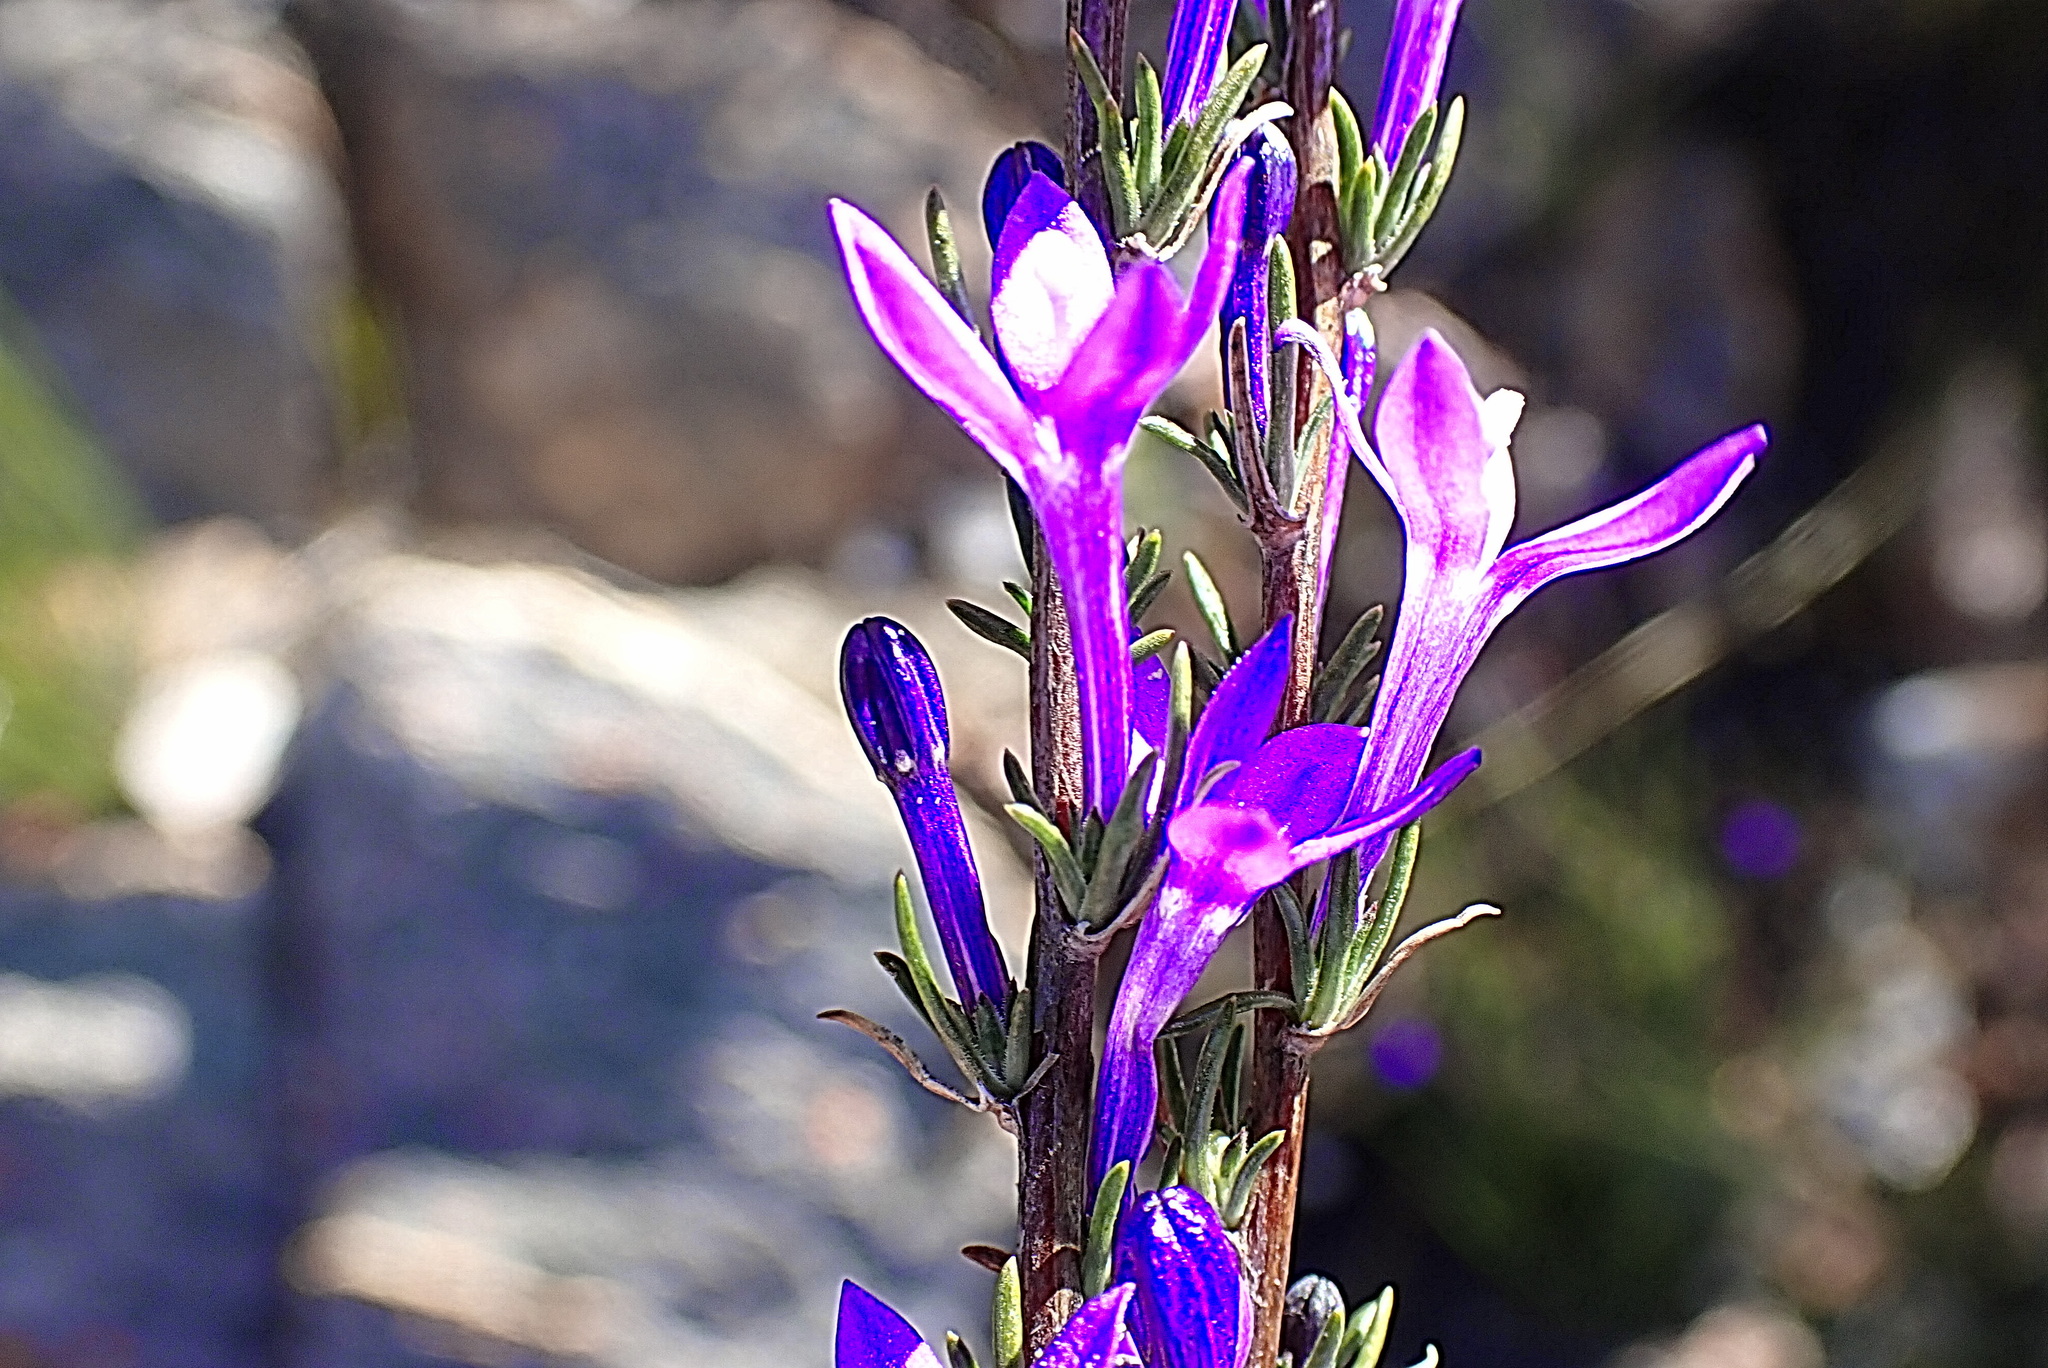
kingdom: Plantae
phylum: Tracheophyta
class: Magnoliopsida
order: Asterales
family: Campanulaceae
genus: Theilera
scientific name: Theilera guthriei
